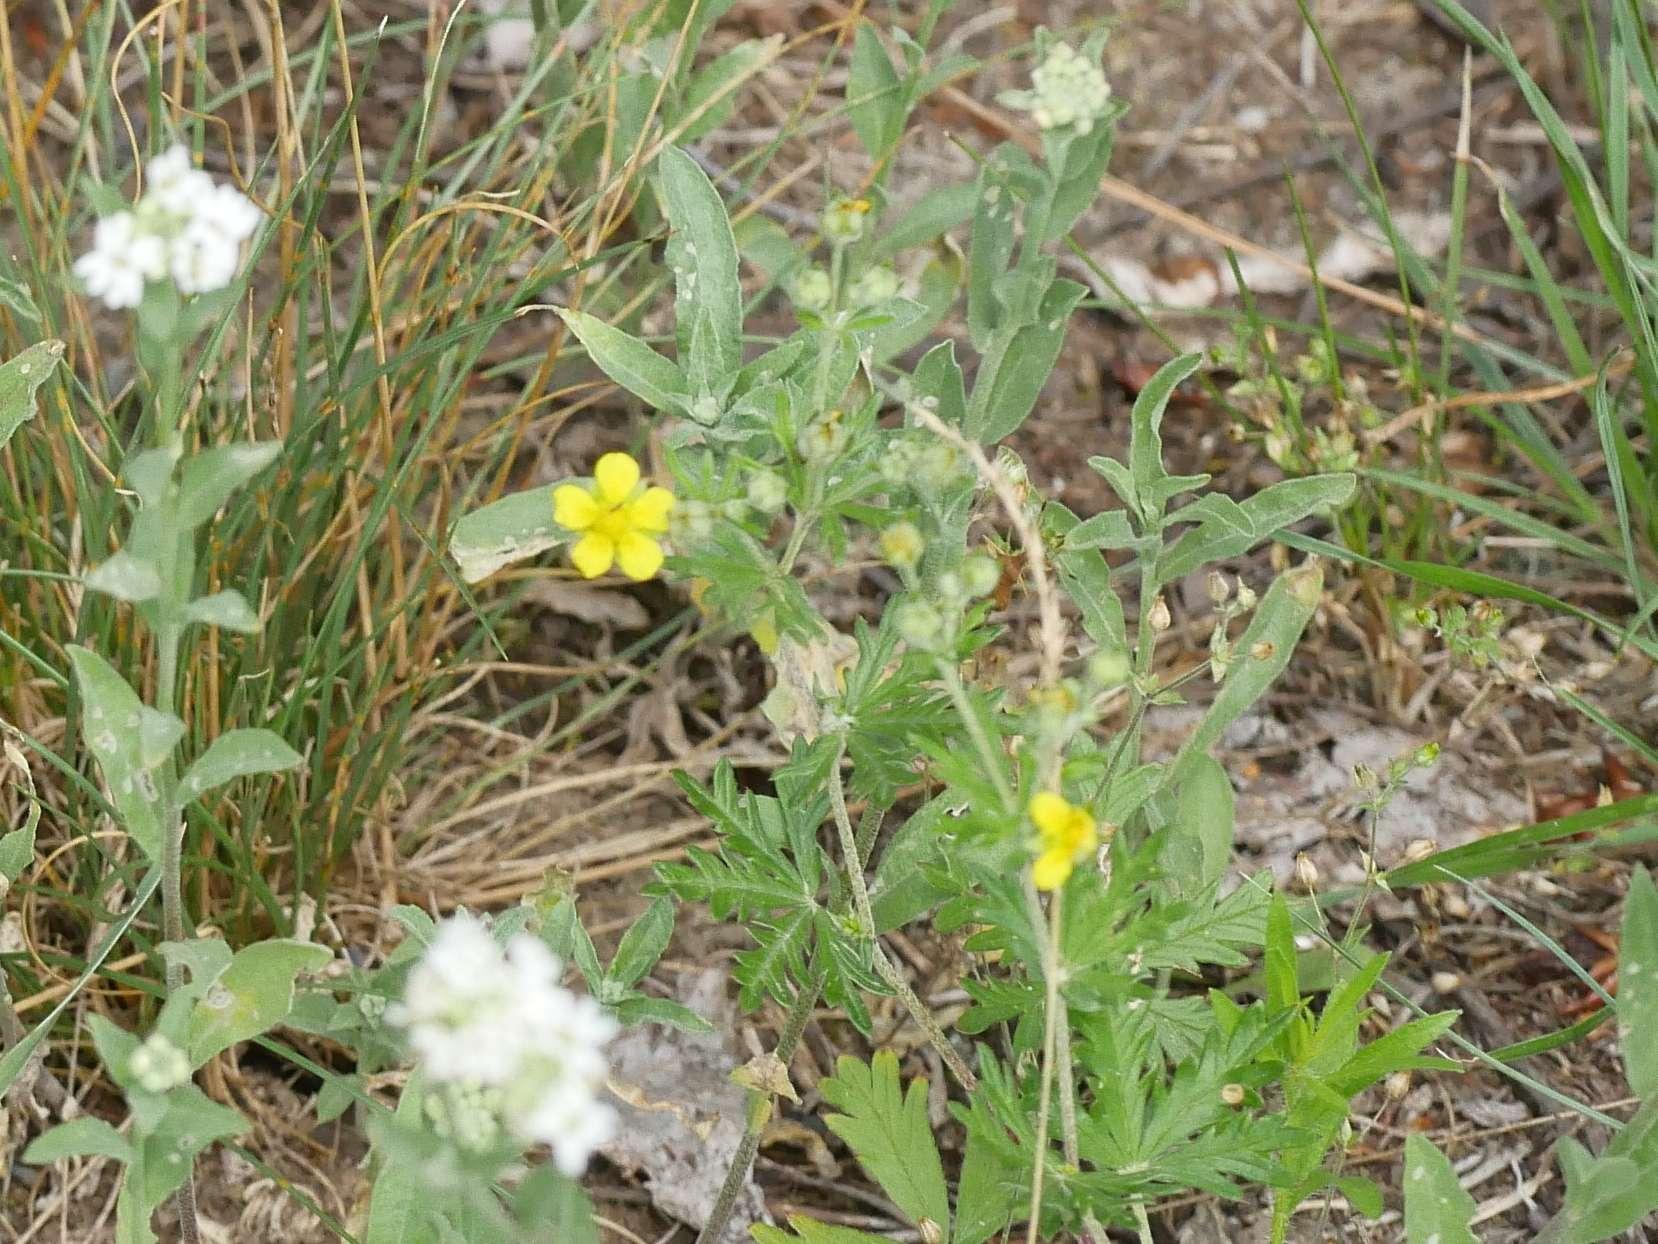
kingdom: Plantae
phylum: Tracheophyta
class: Magnoliopsida
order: Rosales
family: Rosaceae
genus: Potentilla
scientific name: Potentilla argentea
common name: Hoary cinquefoil
